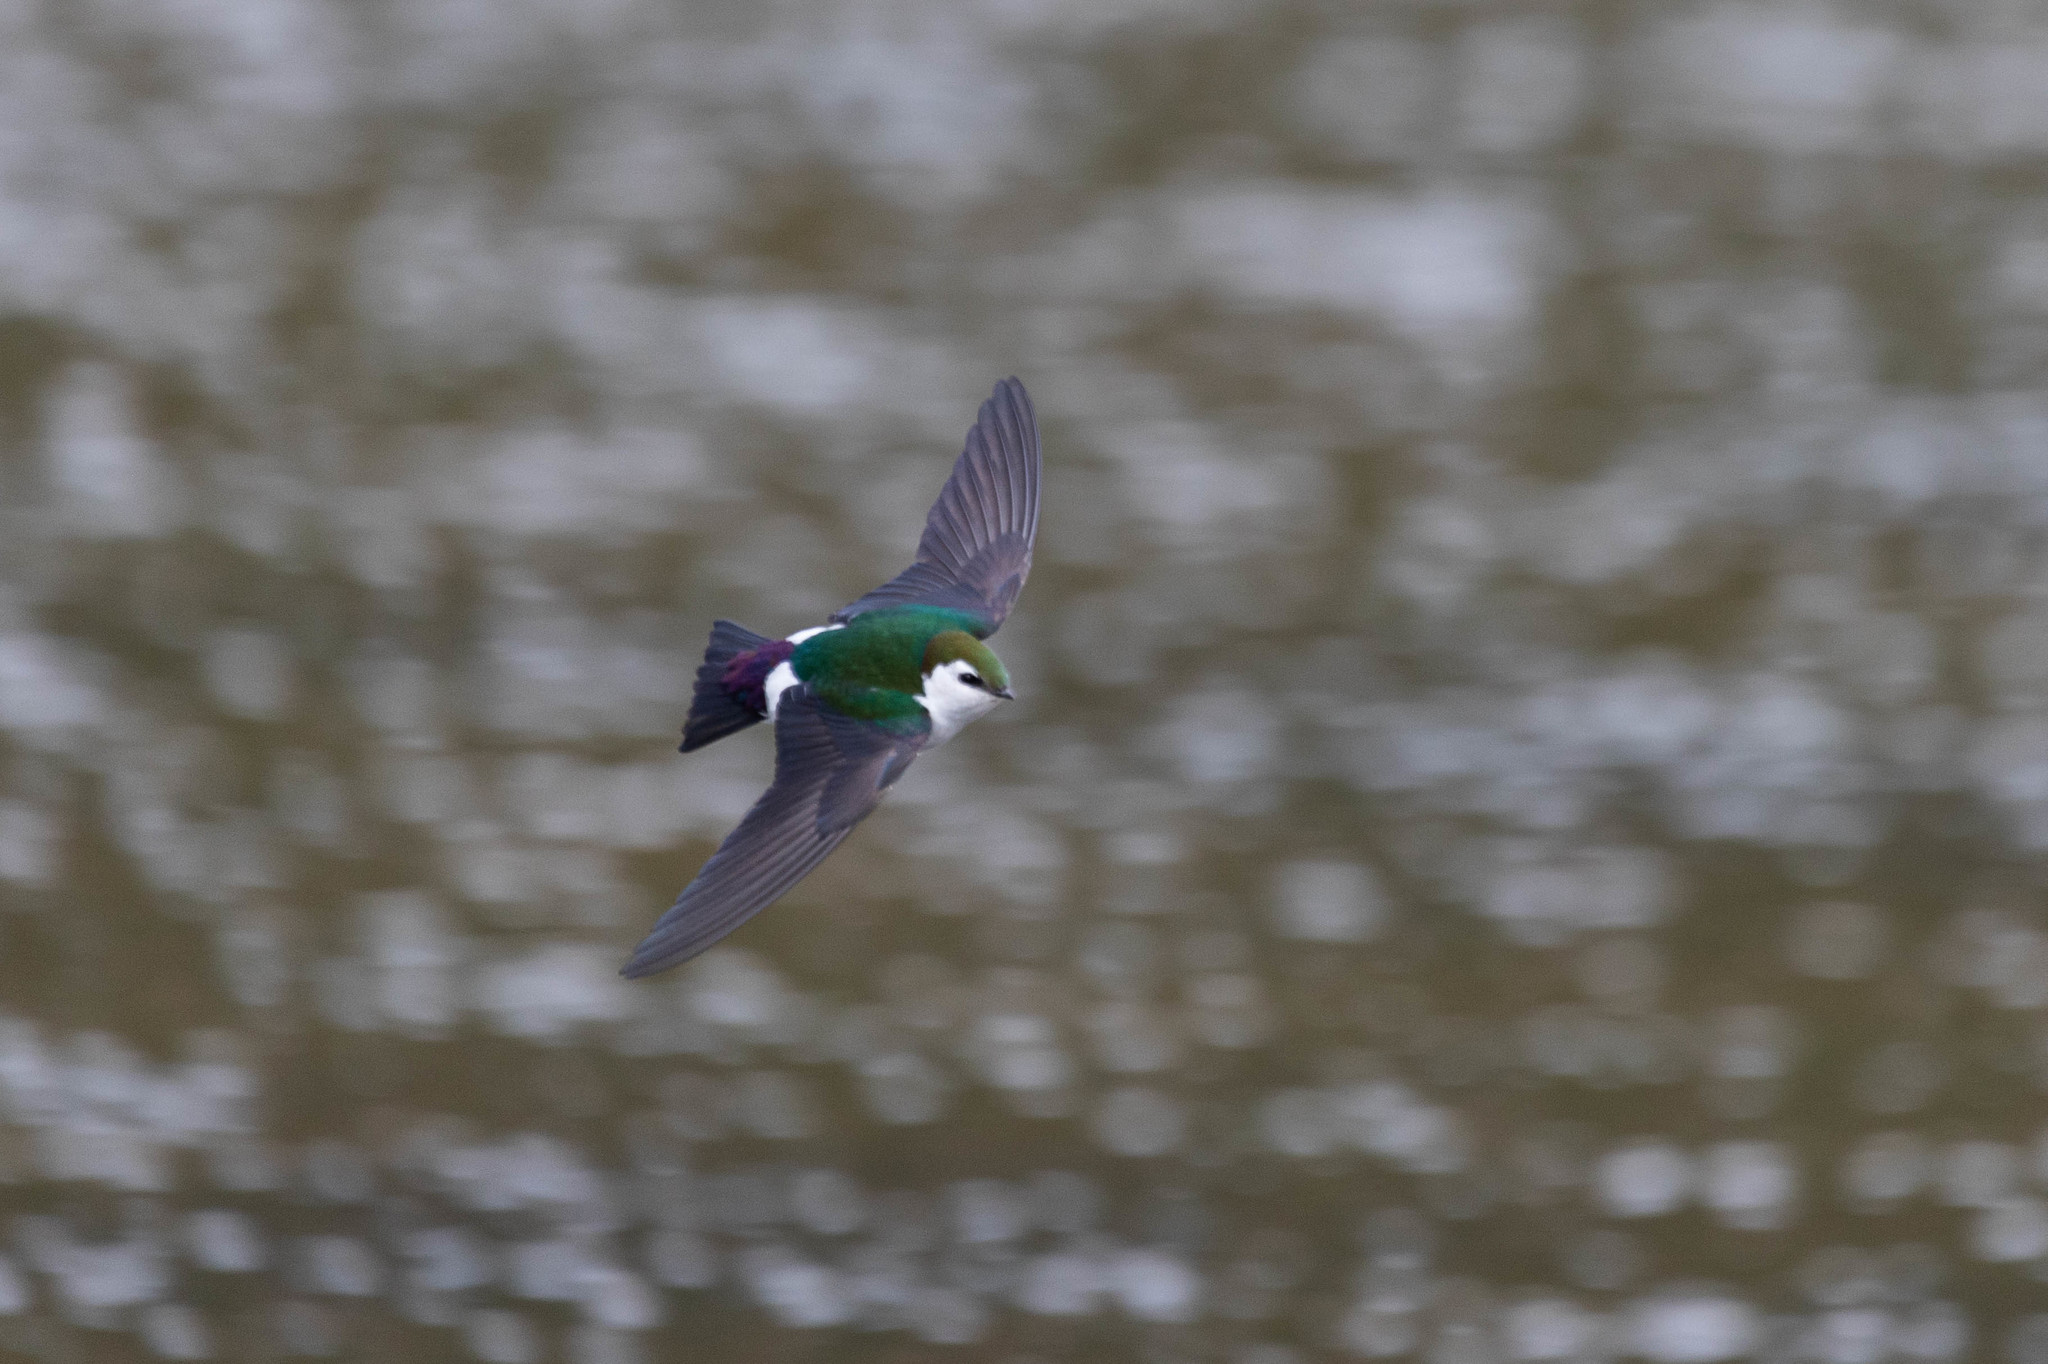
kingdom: Animalia
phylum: Chordata
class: Aves
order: Passeriformes
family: Hirundinidae
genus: Tachycineta
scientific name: Tachycineta thalassina
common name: Violet-green swallow
